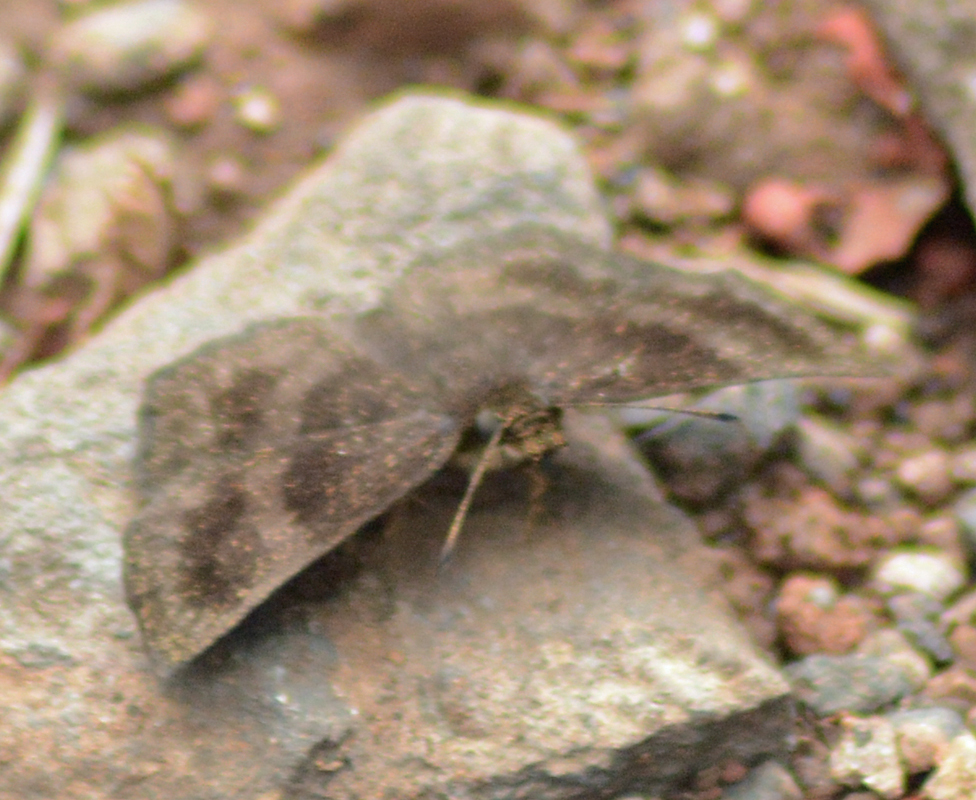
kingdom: Animalia
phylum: Arthropoda
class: Insecta
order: Lepidoptera
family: Hesperiidae
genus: Staphylus
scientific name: Staphylus vincula
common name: Mountain sootywing
